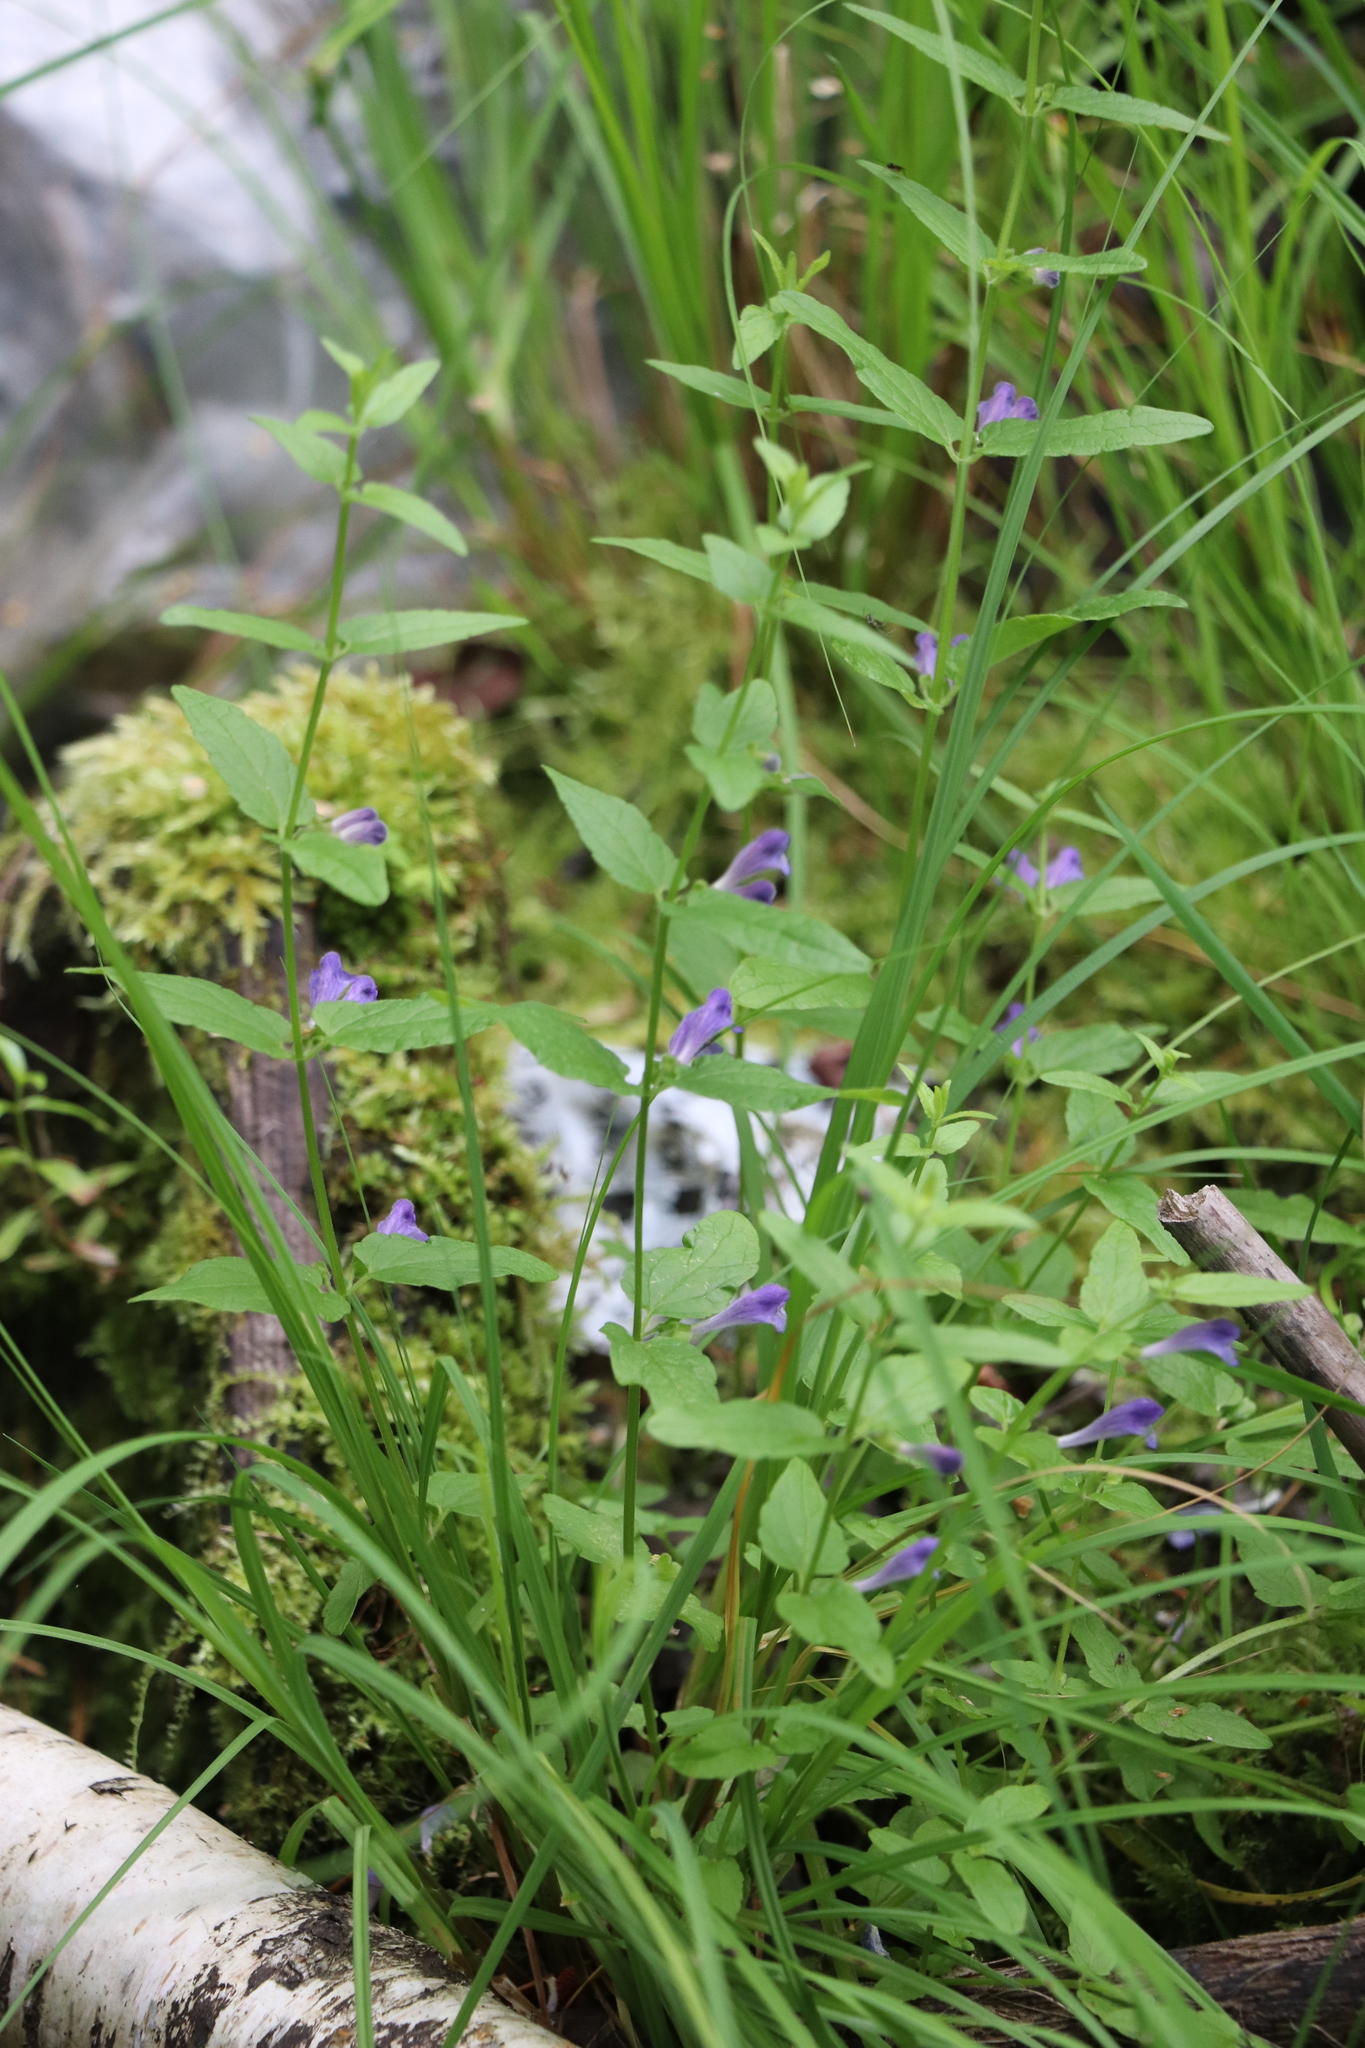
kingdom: Plantae
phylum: Tracheophyta
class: Magnoliopsida
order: Lamiales
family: Lamiaceae
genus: Scutellaria
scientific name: Scutellaria galericulata
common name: Skullcap
